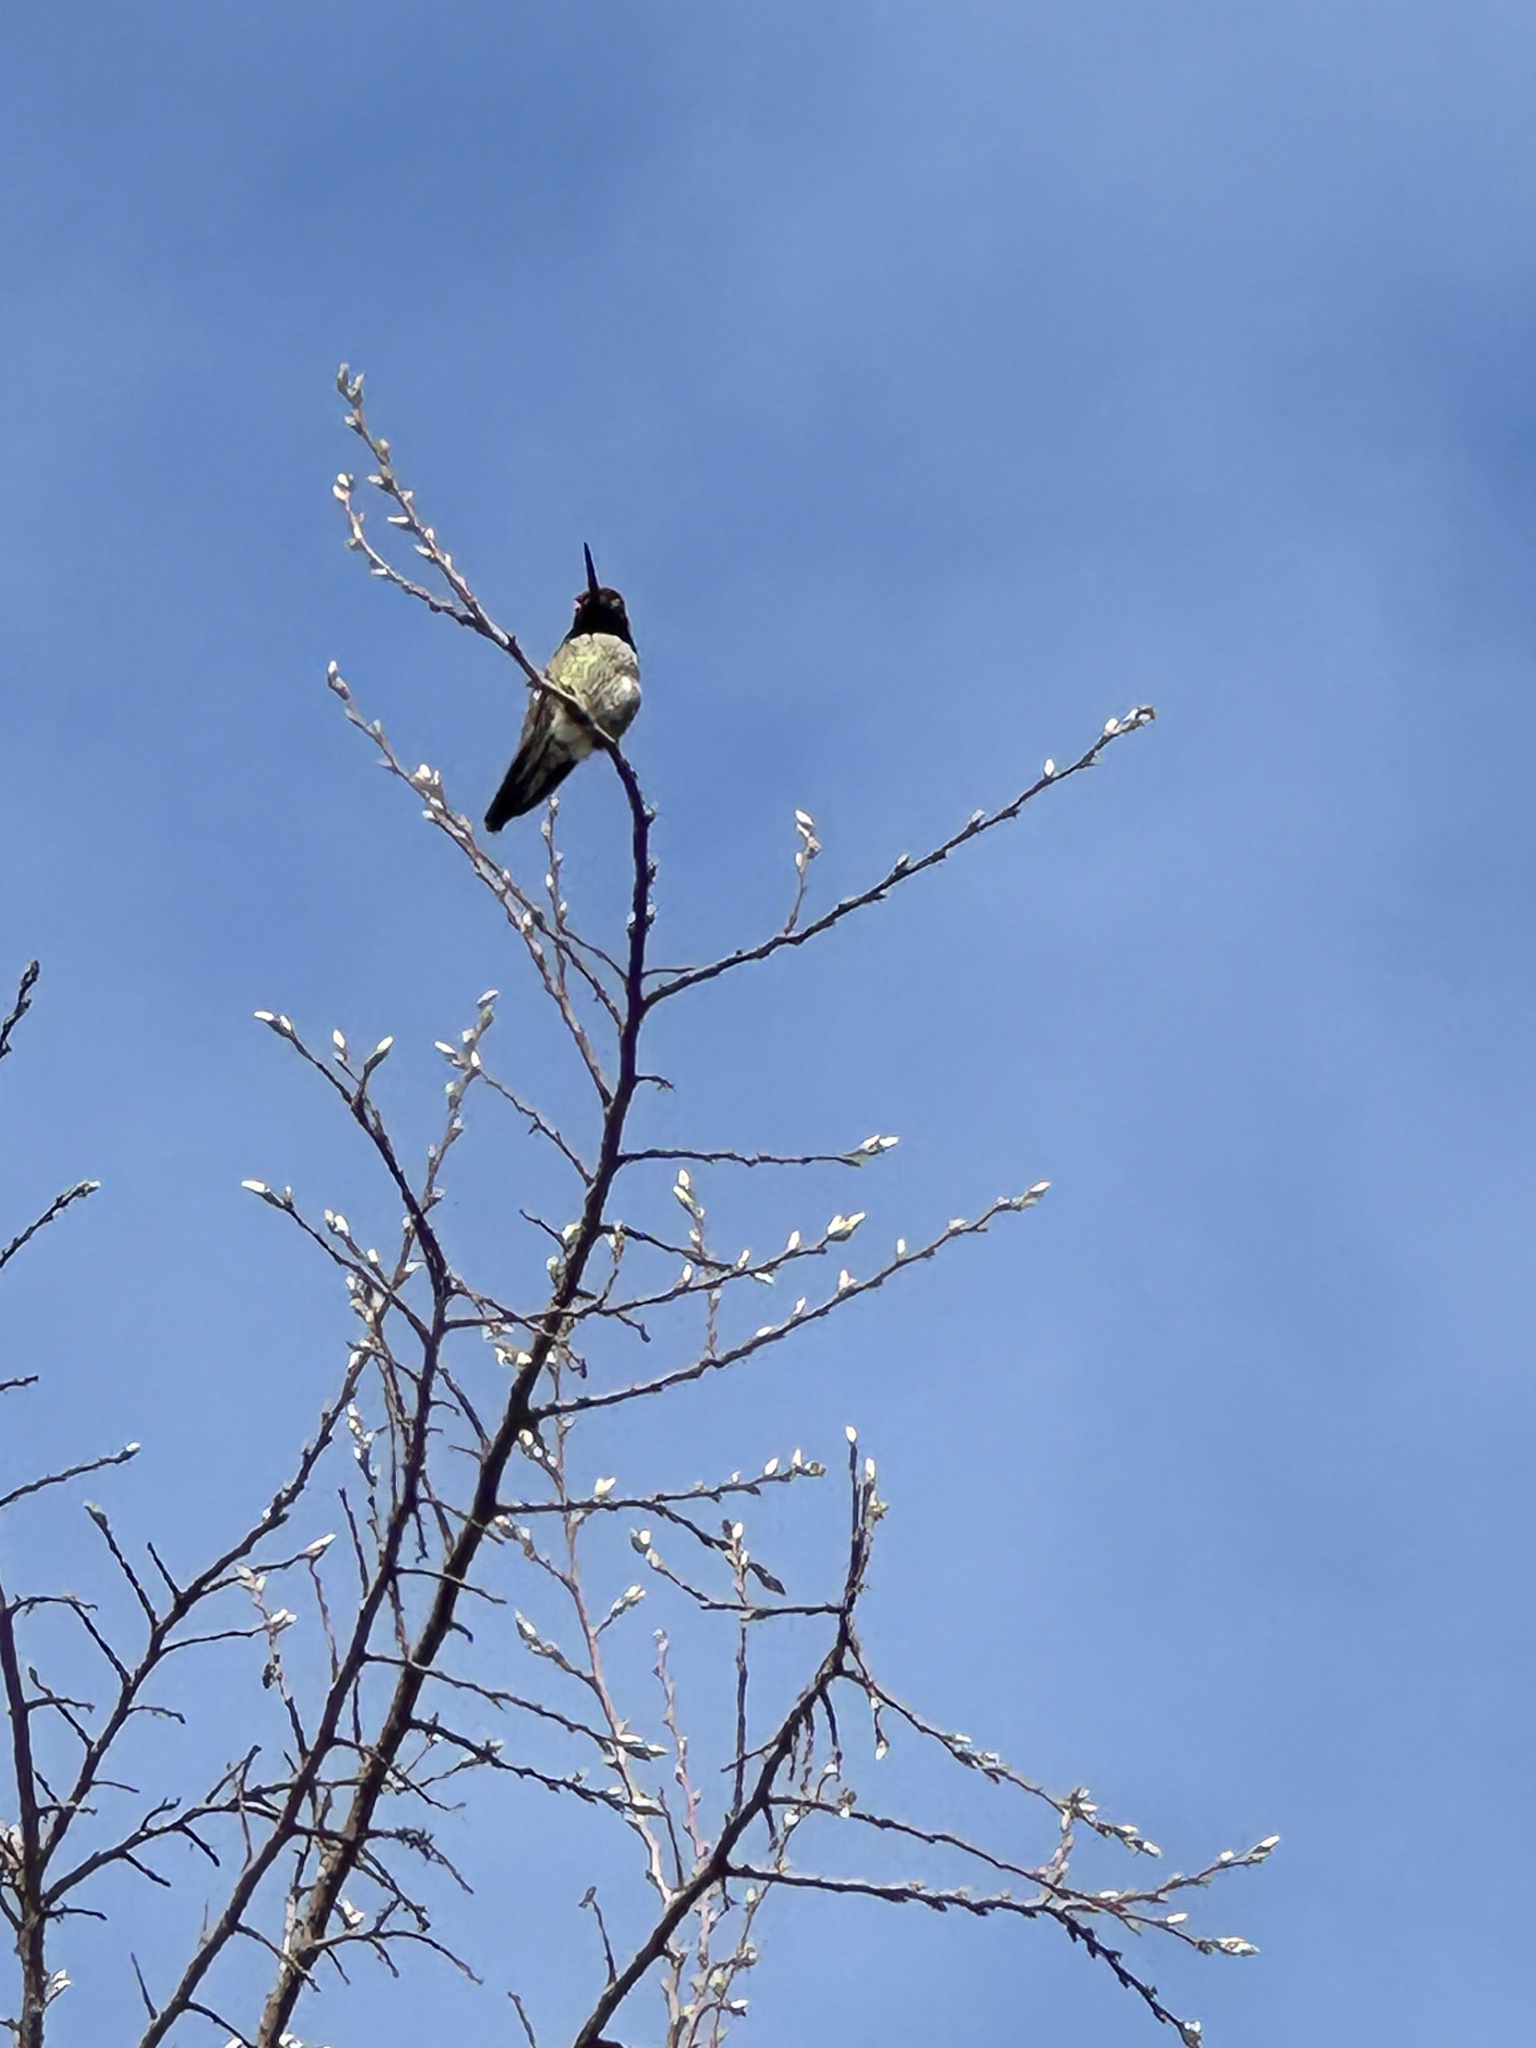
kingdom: Animalia
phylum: Chordata
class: Aves
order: Apodiformes
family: Trochilidae
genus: Calypte
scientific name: Calypte anna
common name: Anna's hummingbird
